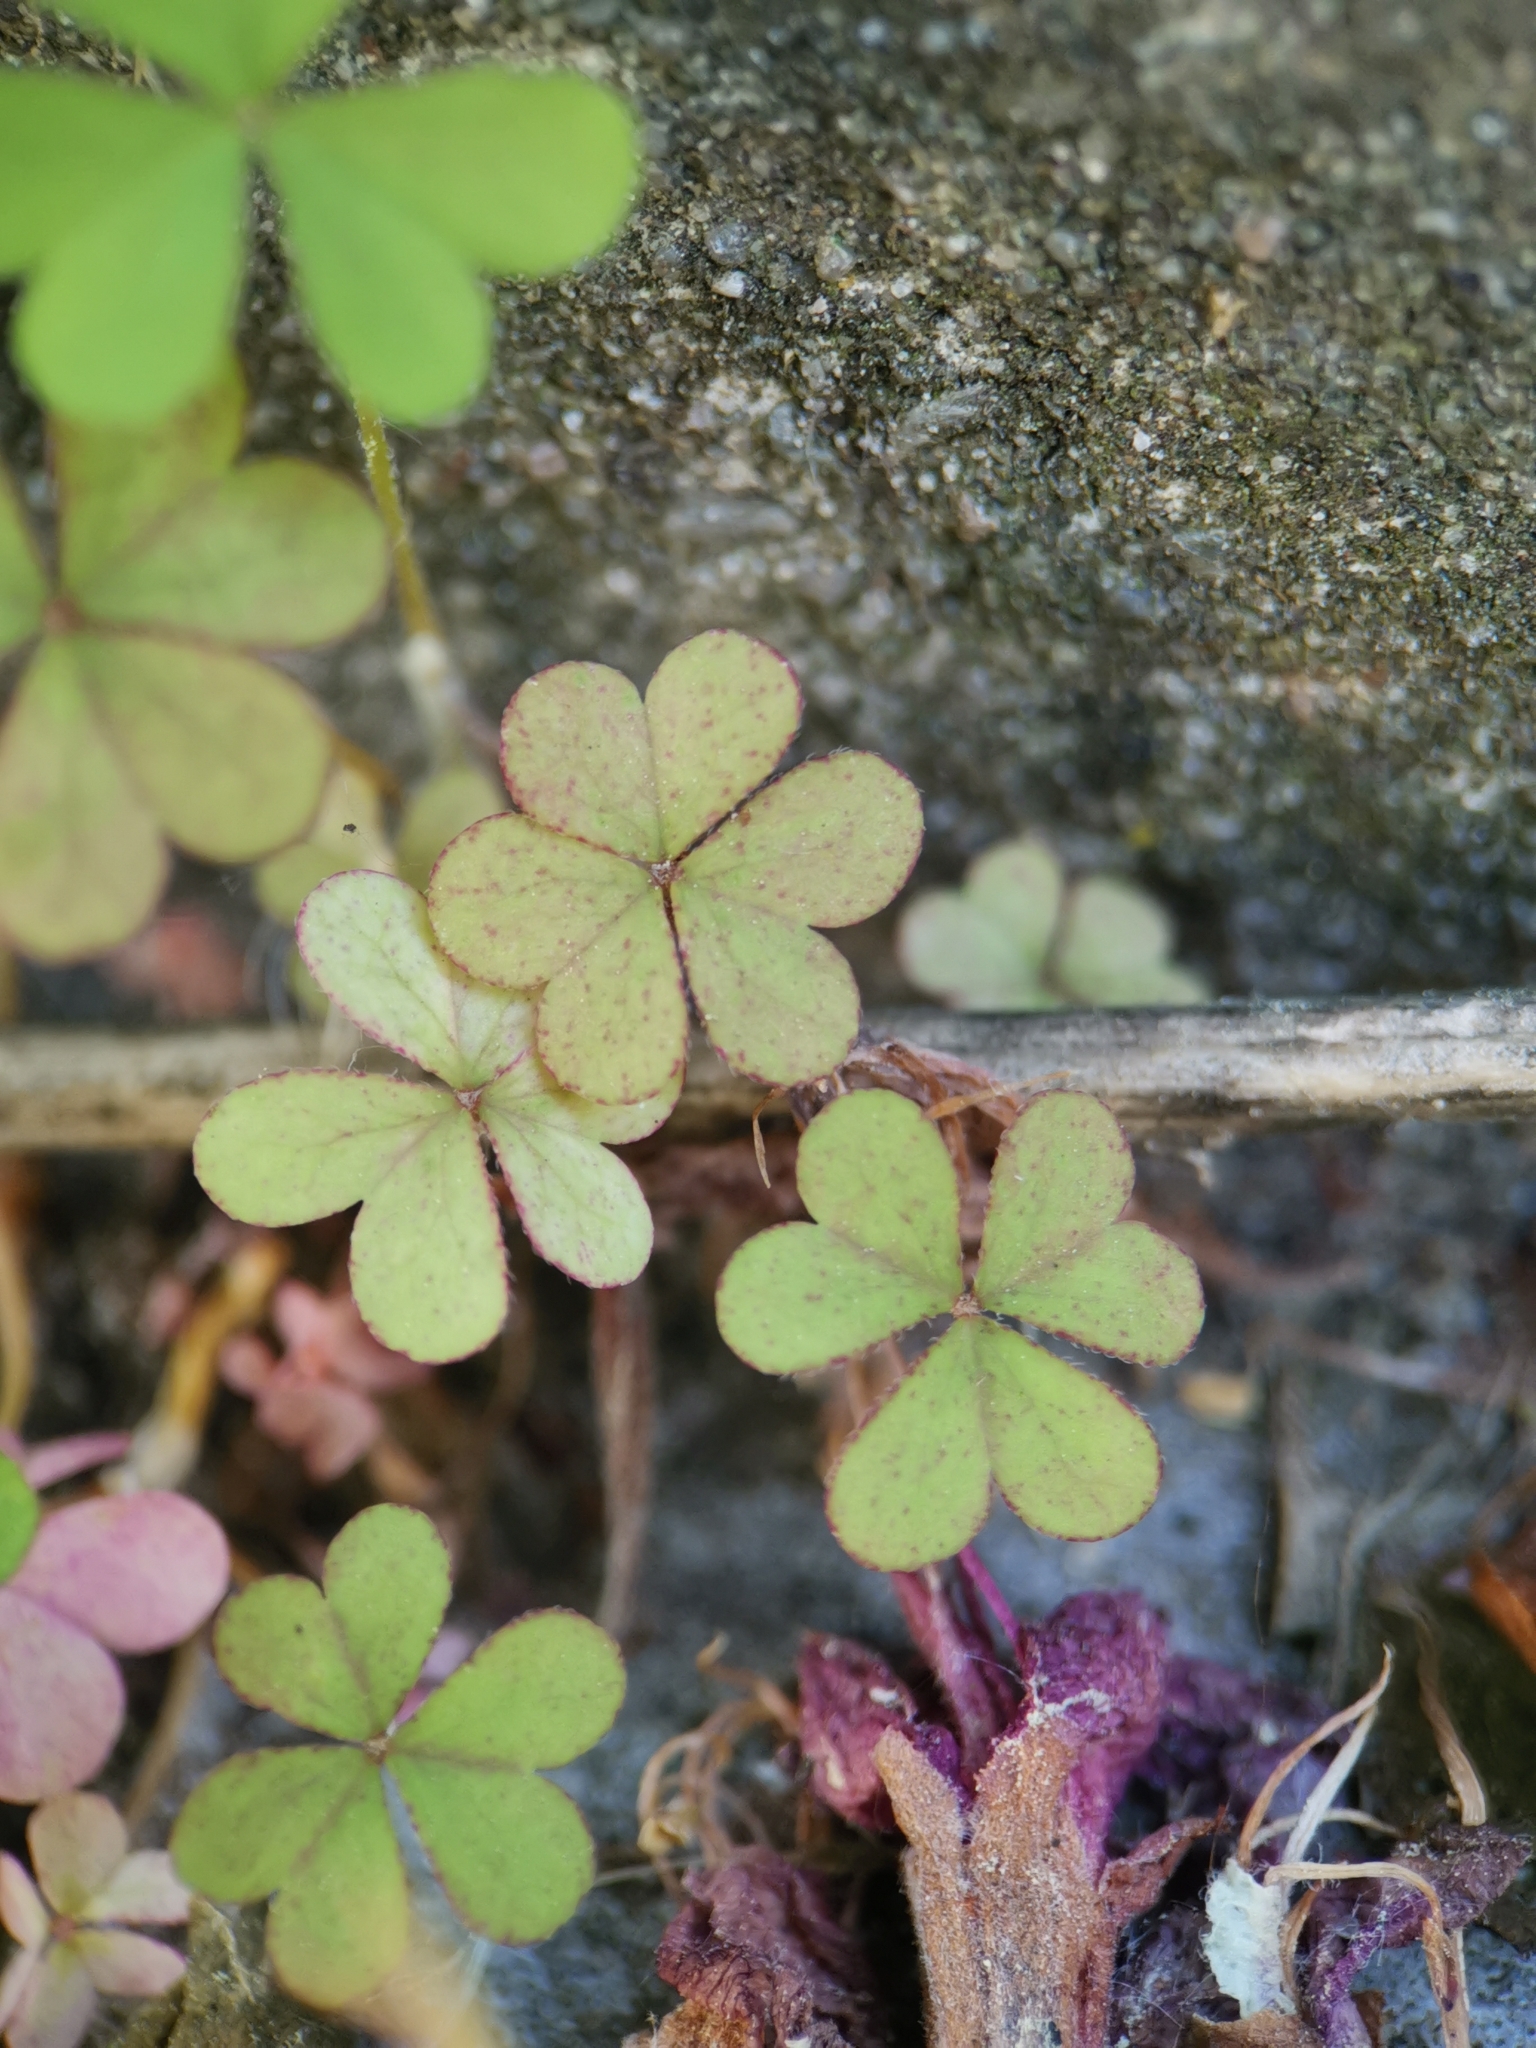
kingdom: Plantae
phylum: Tracheophyta
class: Magnoliopsida
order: Oxalidales
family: Oxalidaceae
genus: Oxalis
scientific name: Oxalis corniculata
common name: Procumbent yellow-sorrel
